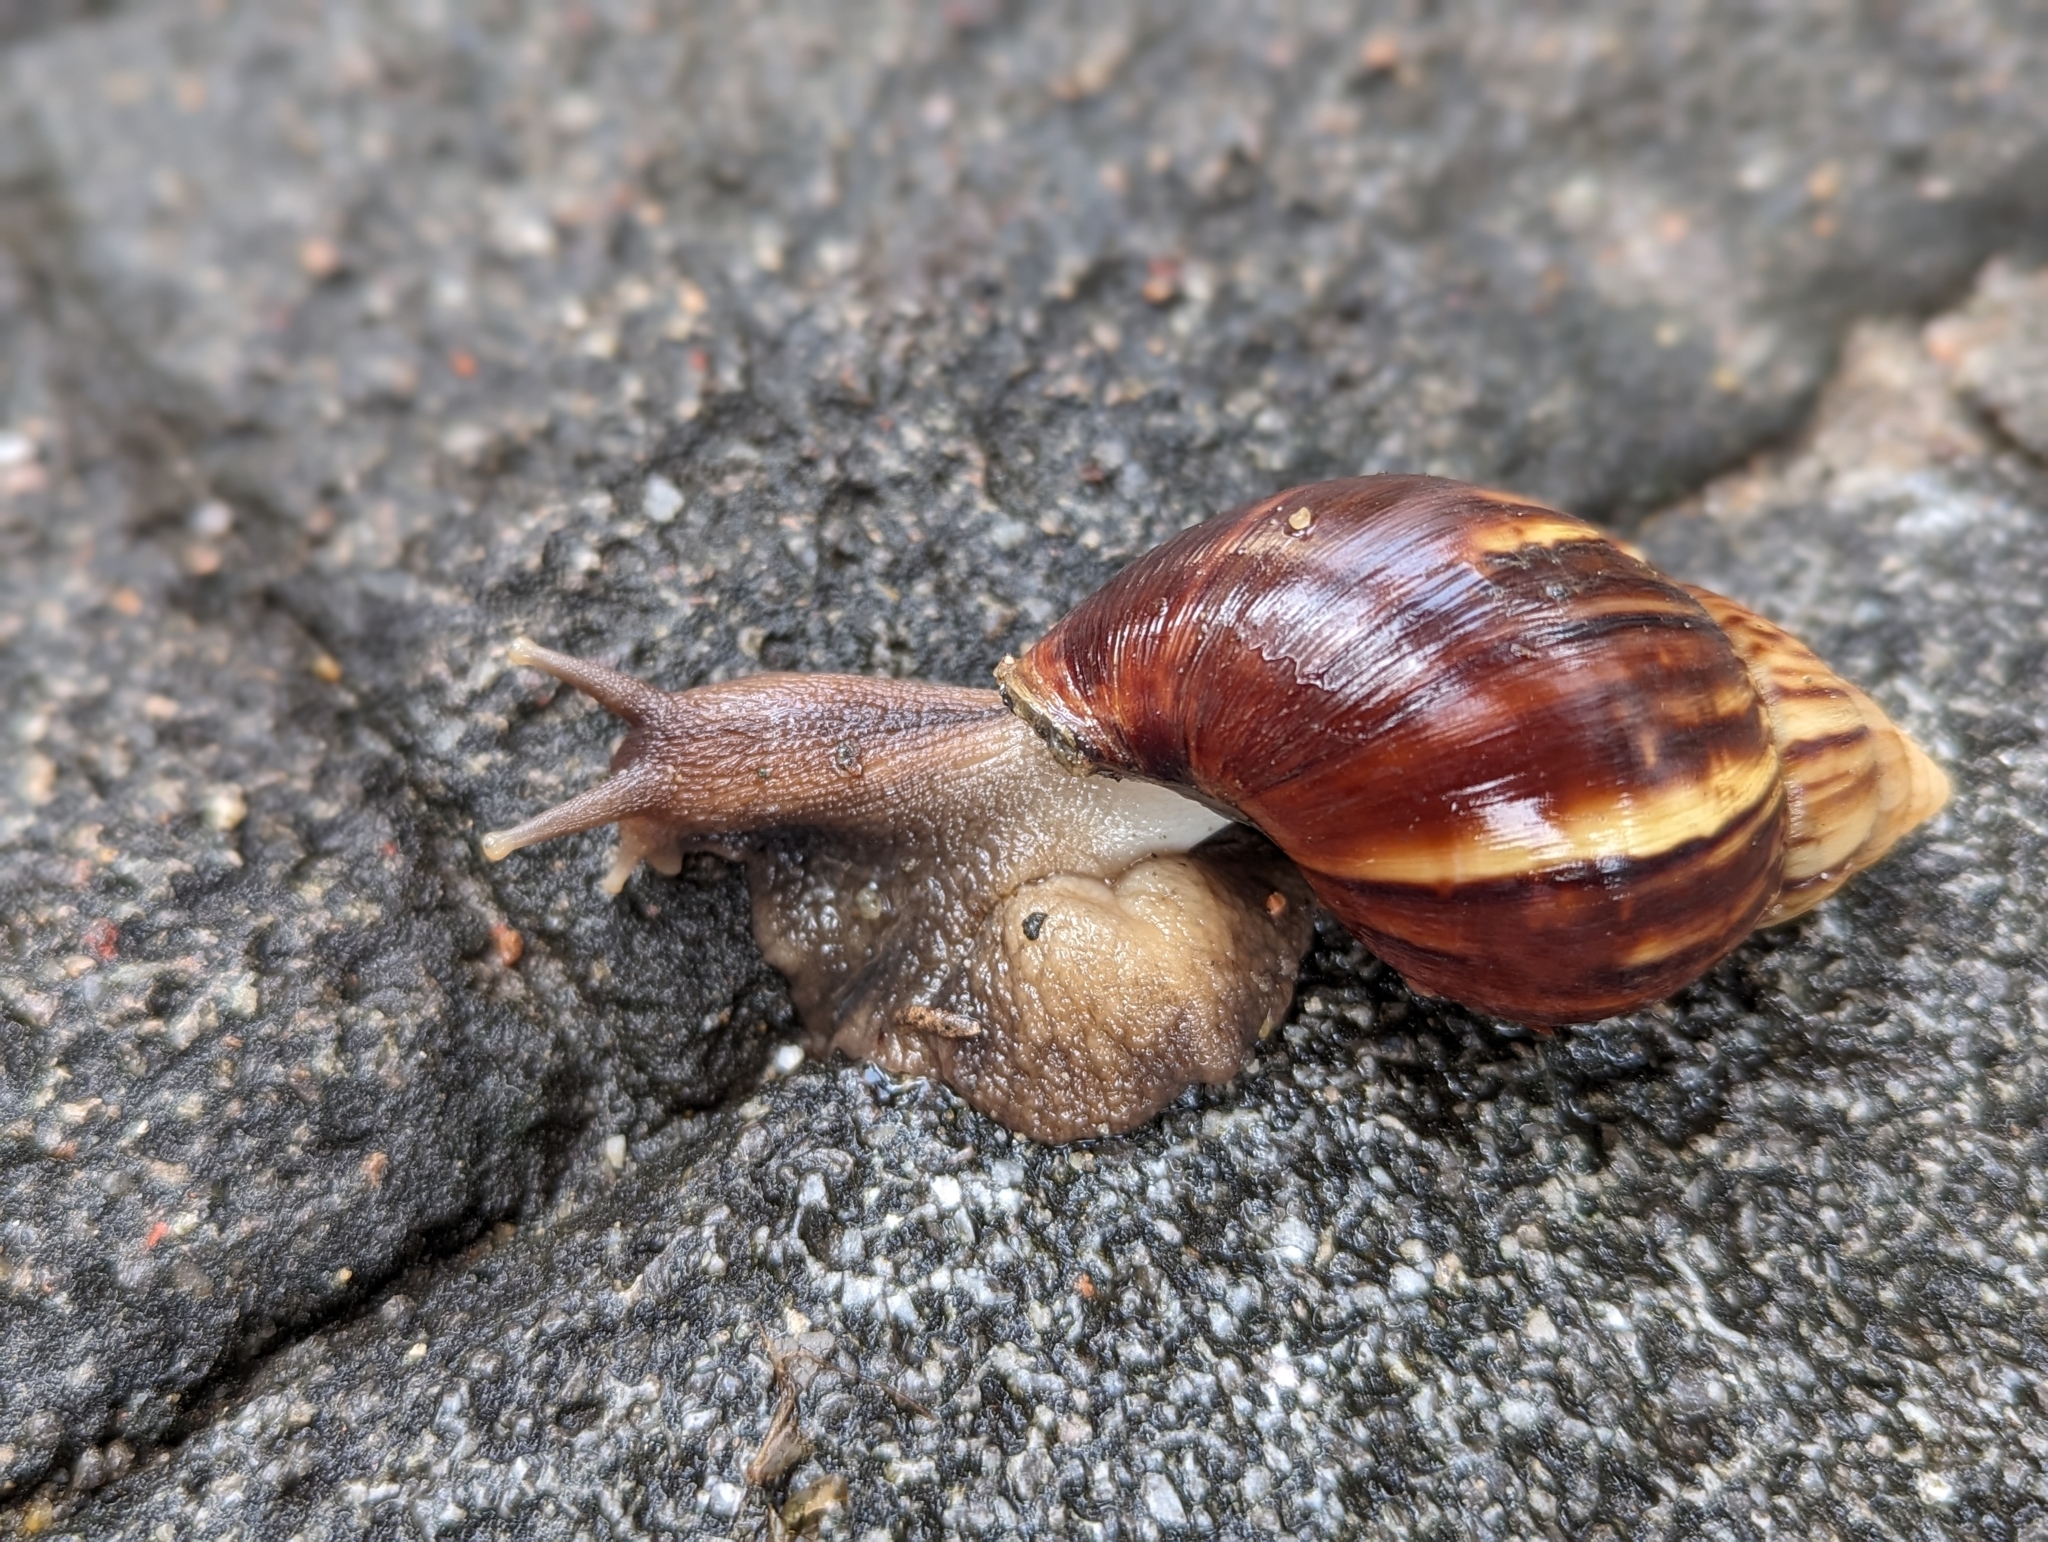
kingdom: Animalia
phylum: Mollusca
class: Gastropoda
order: Stylommatophora
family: Achatinidae
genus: Lissachatina
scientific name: Lissachatina immaculata
